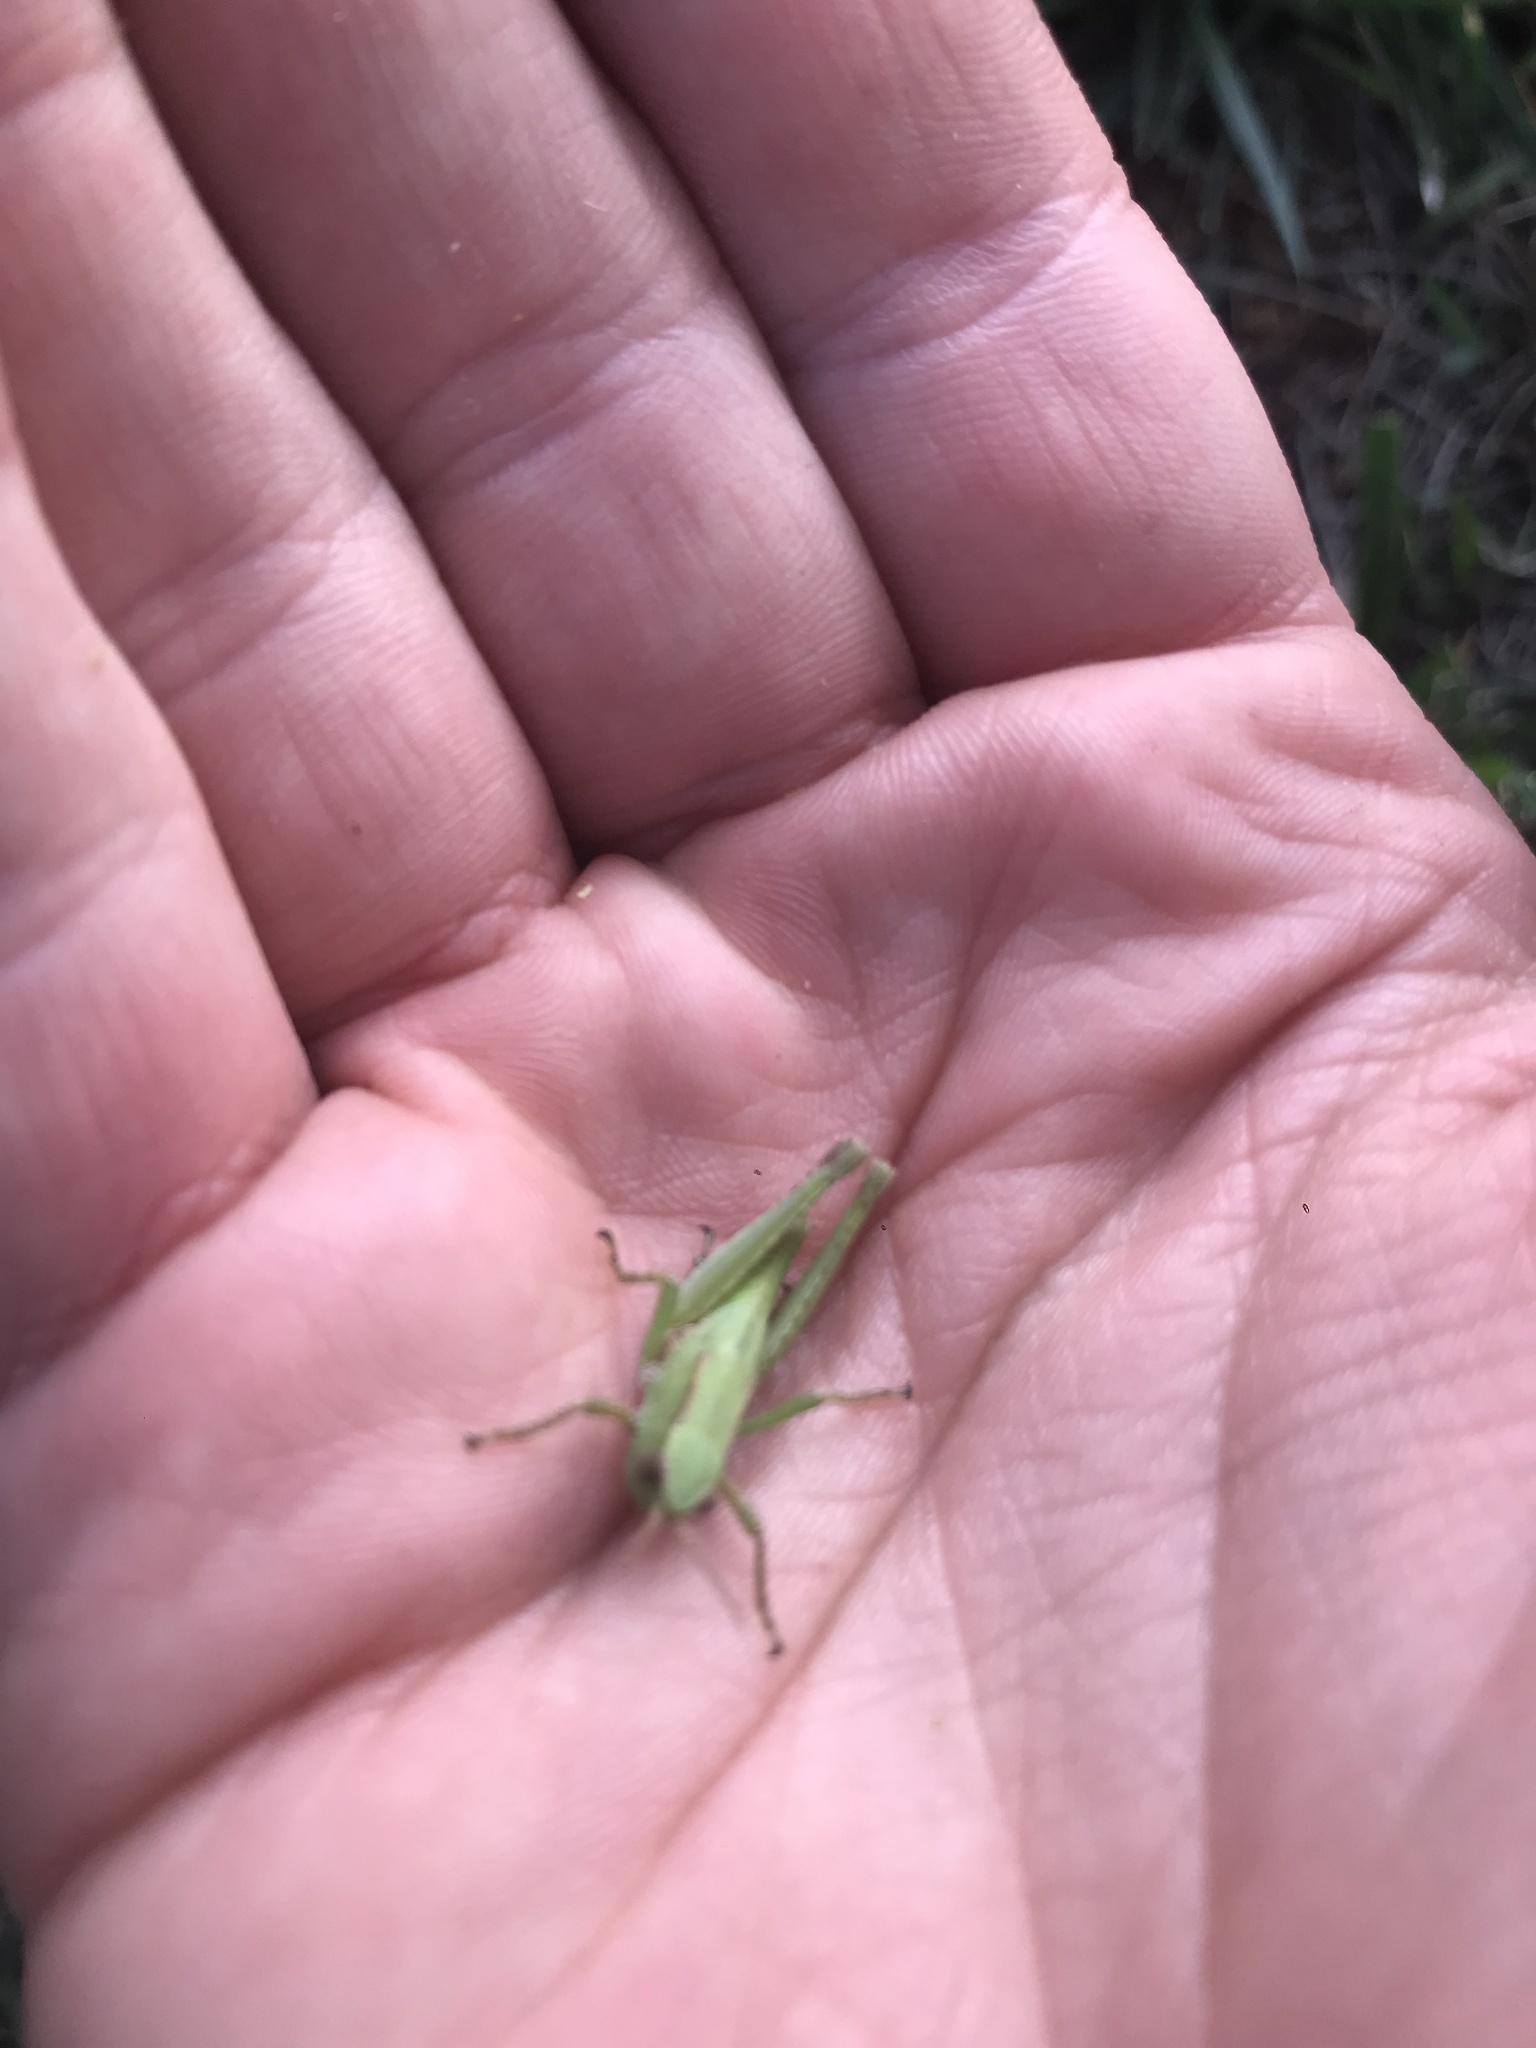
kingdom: Animalia
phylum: Arthropoda
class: Insecta
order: Orthoptera
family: Acrididae
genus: Dichromorpha
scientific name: Dichromorpha viridis
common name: Short-winged green grasshopper
